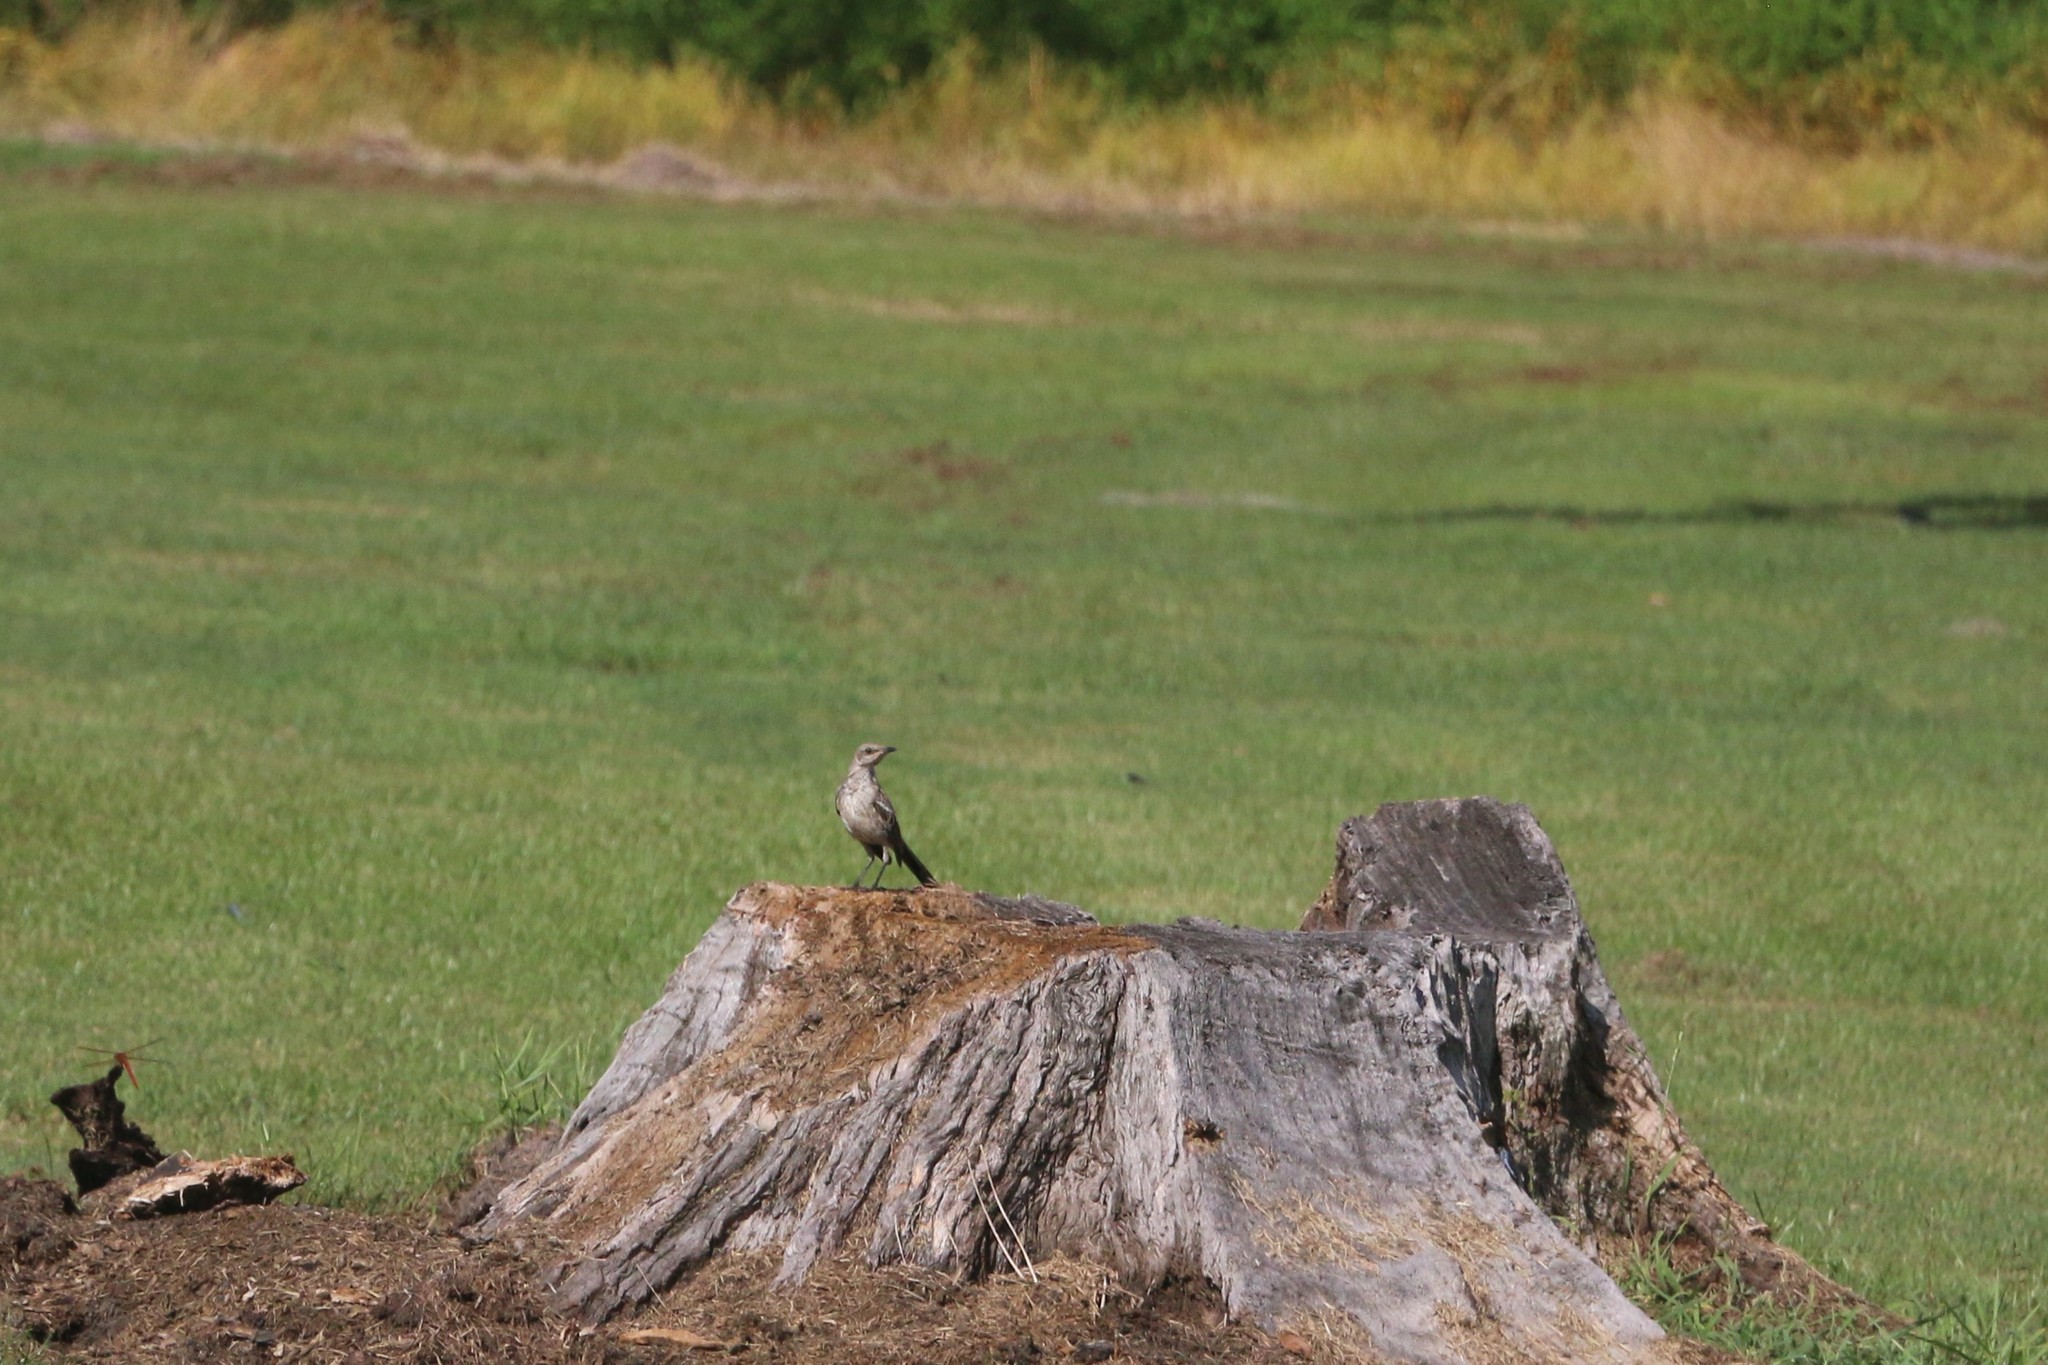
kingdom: Animalia
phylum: Chordata
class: Aves
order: Passeriformes
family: Mimidae
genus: Mimus
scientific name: Mimus polyglottos
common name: Northern mockingbird
